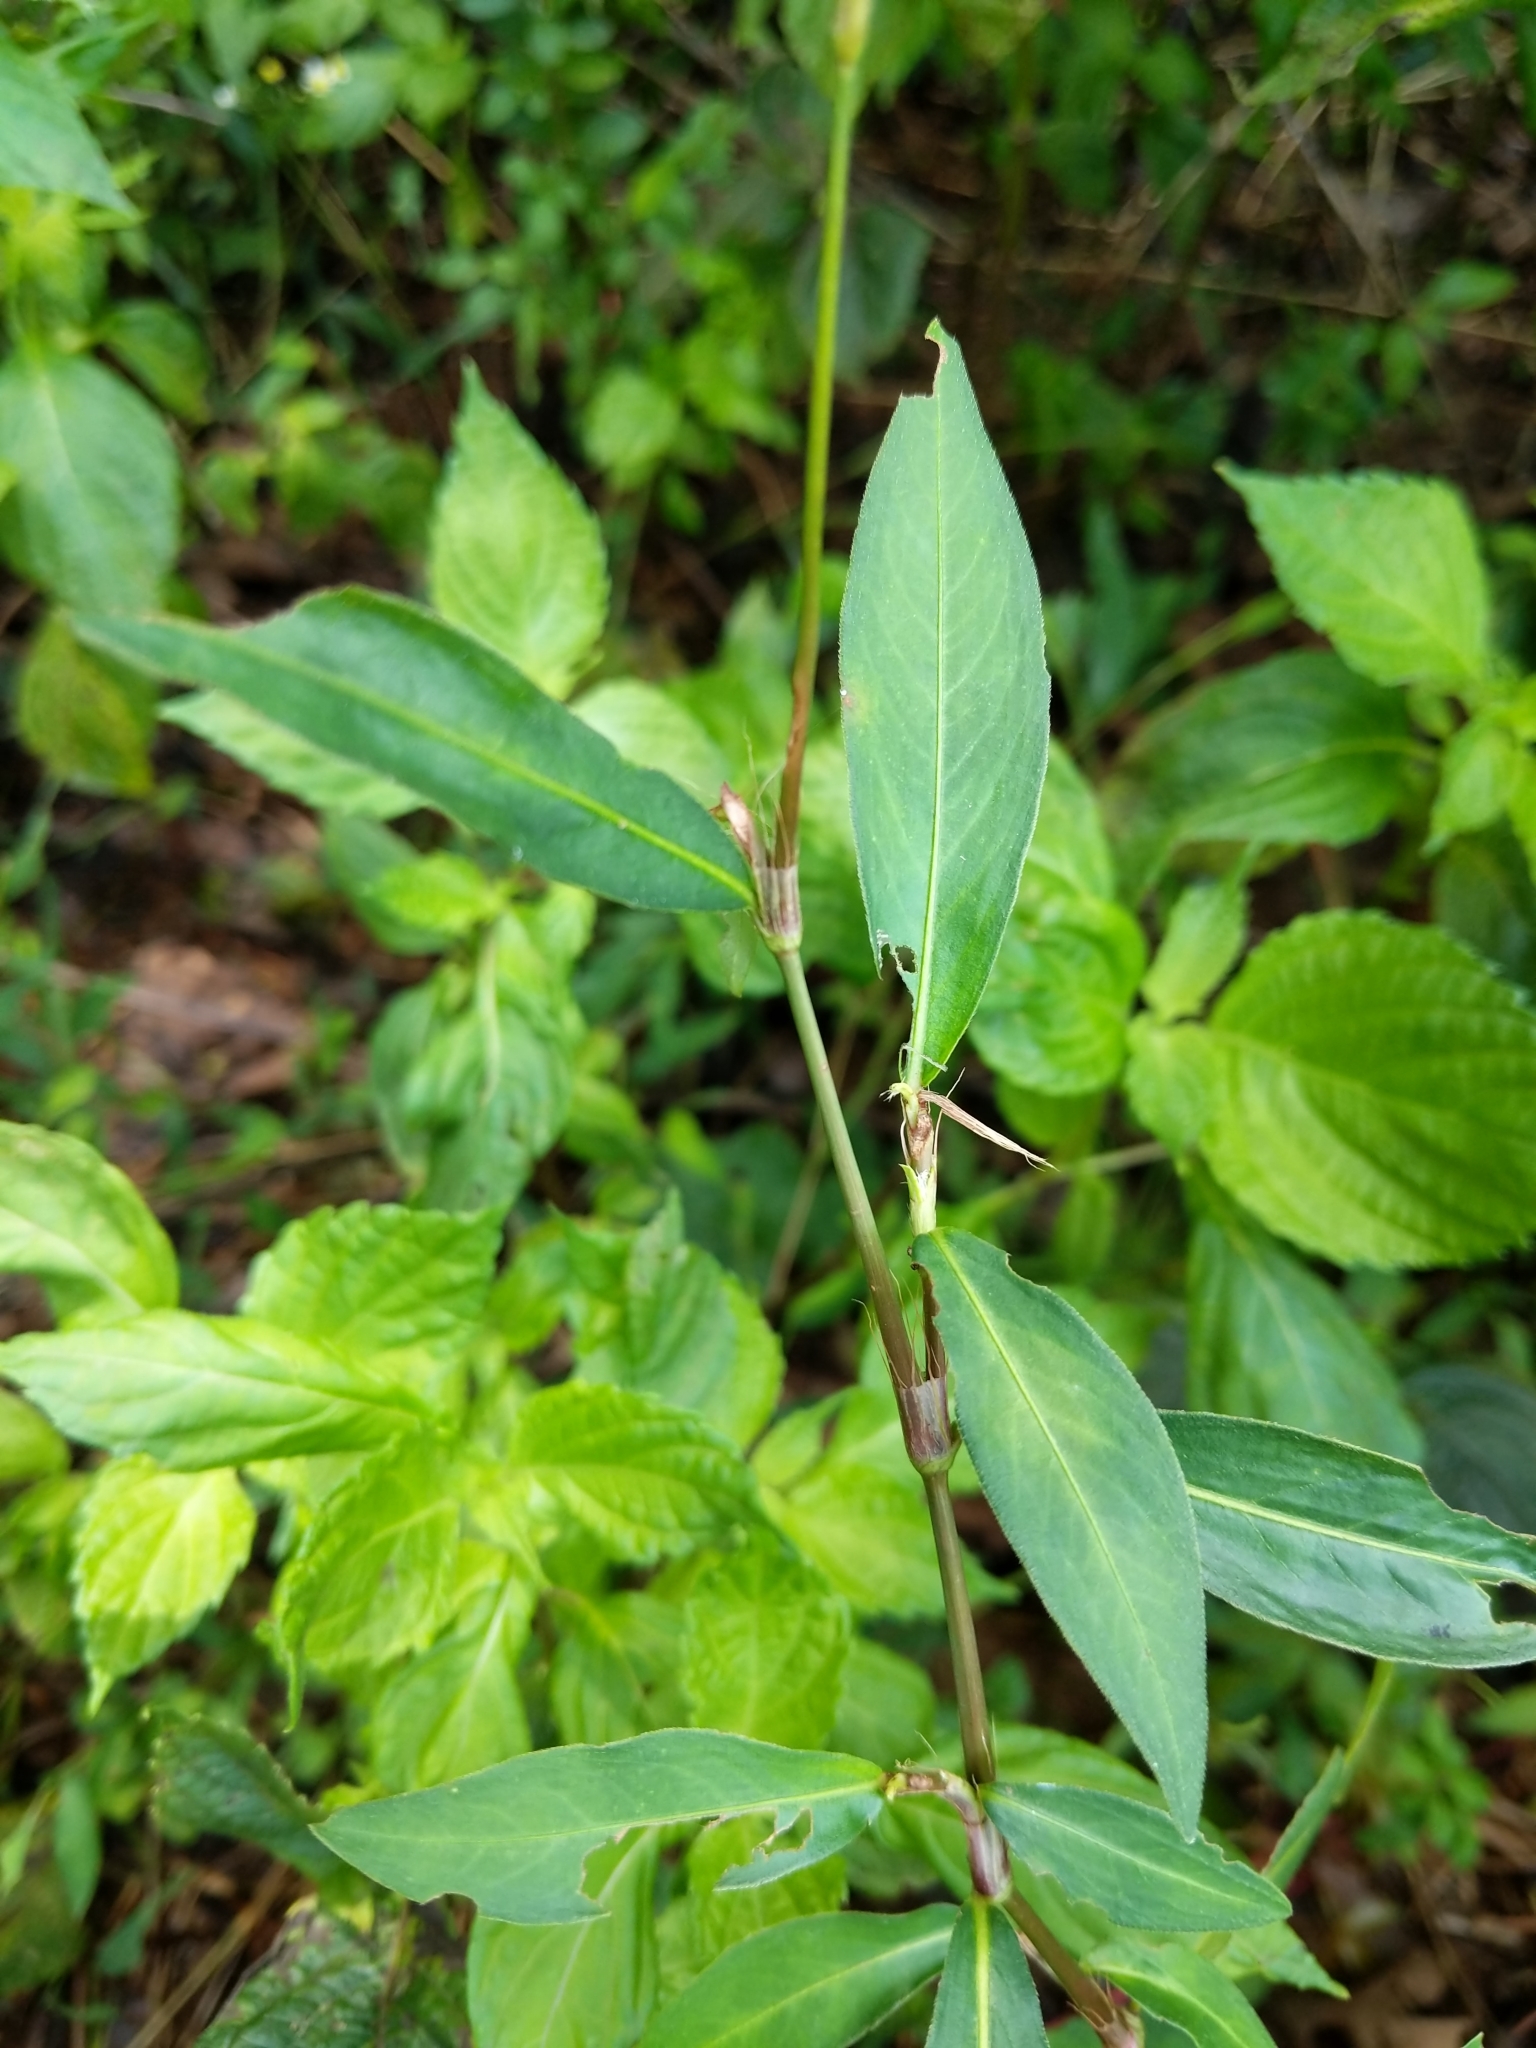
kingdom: Plantae
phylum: Tracheophyta
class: Magnoliopsida
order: Caryophyllales
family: Polygonaceae
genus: Persicaria
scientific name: Persicaria longiseta
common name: Bristly lady's-thumb
